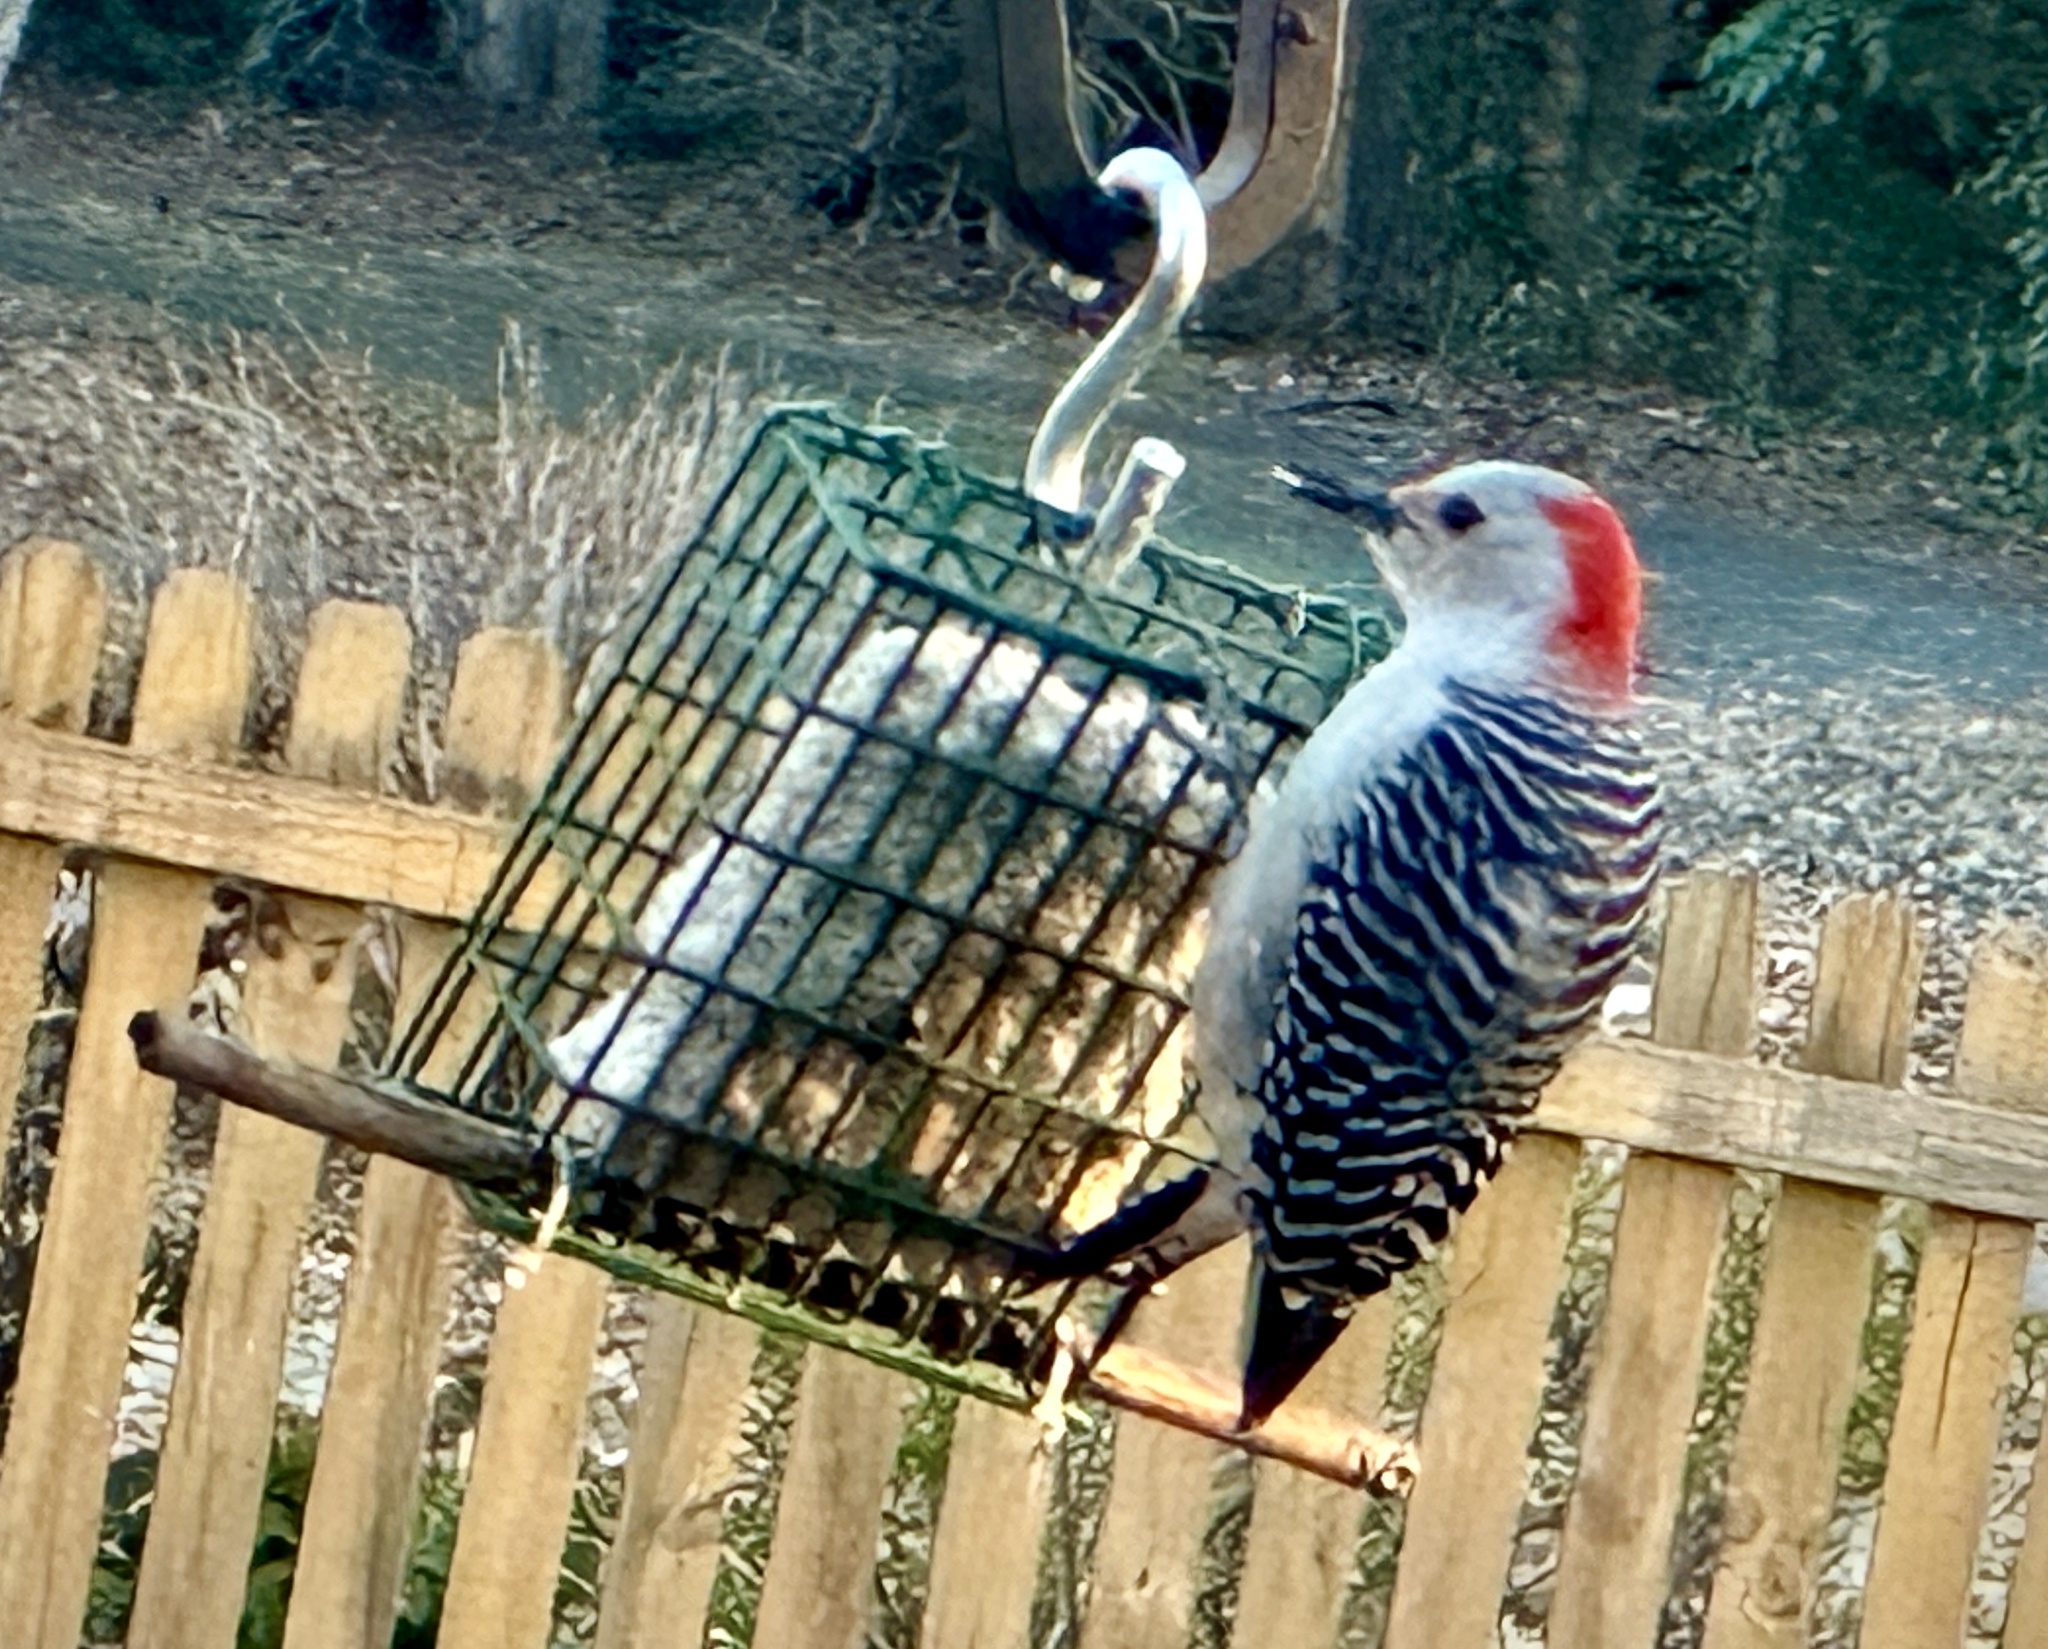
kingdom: Animalia
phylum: Chordata
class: Aves
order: Piciformes
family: Picidae
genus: Melanerpes
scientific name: Melanerpes carolinus
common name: Red-bellied woodpecker
